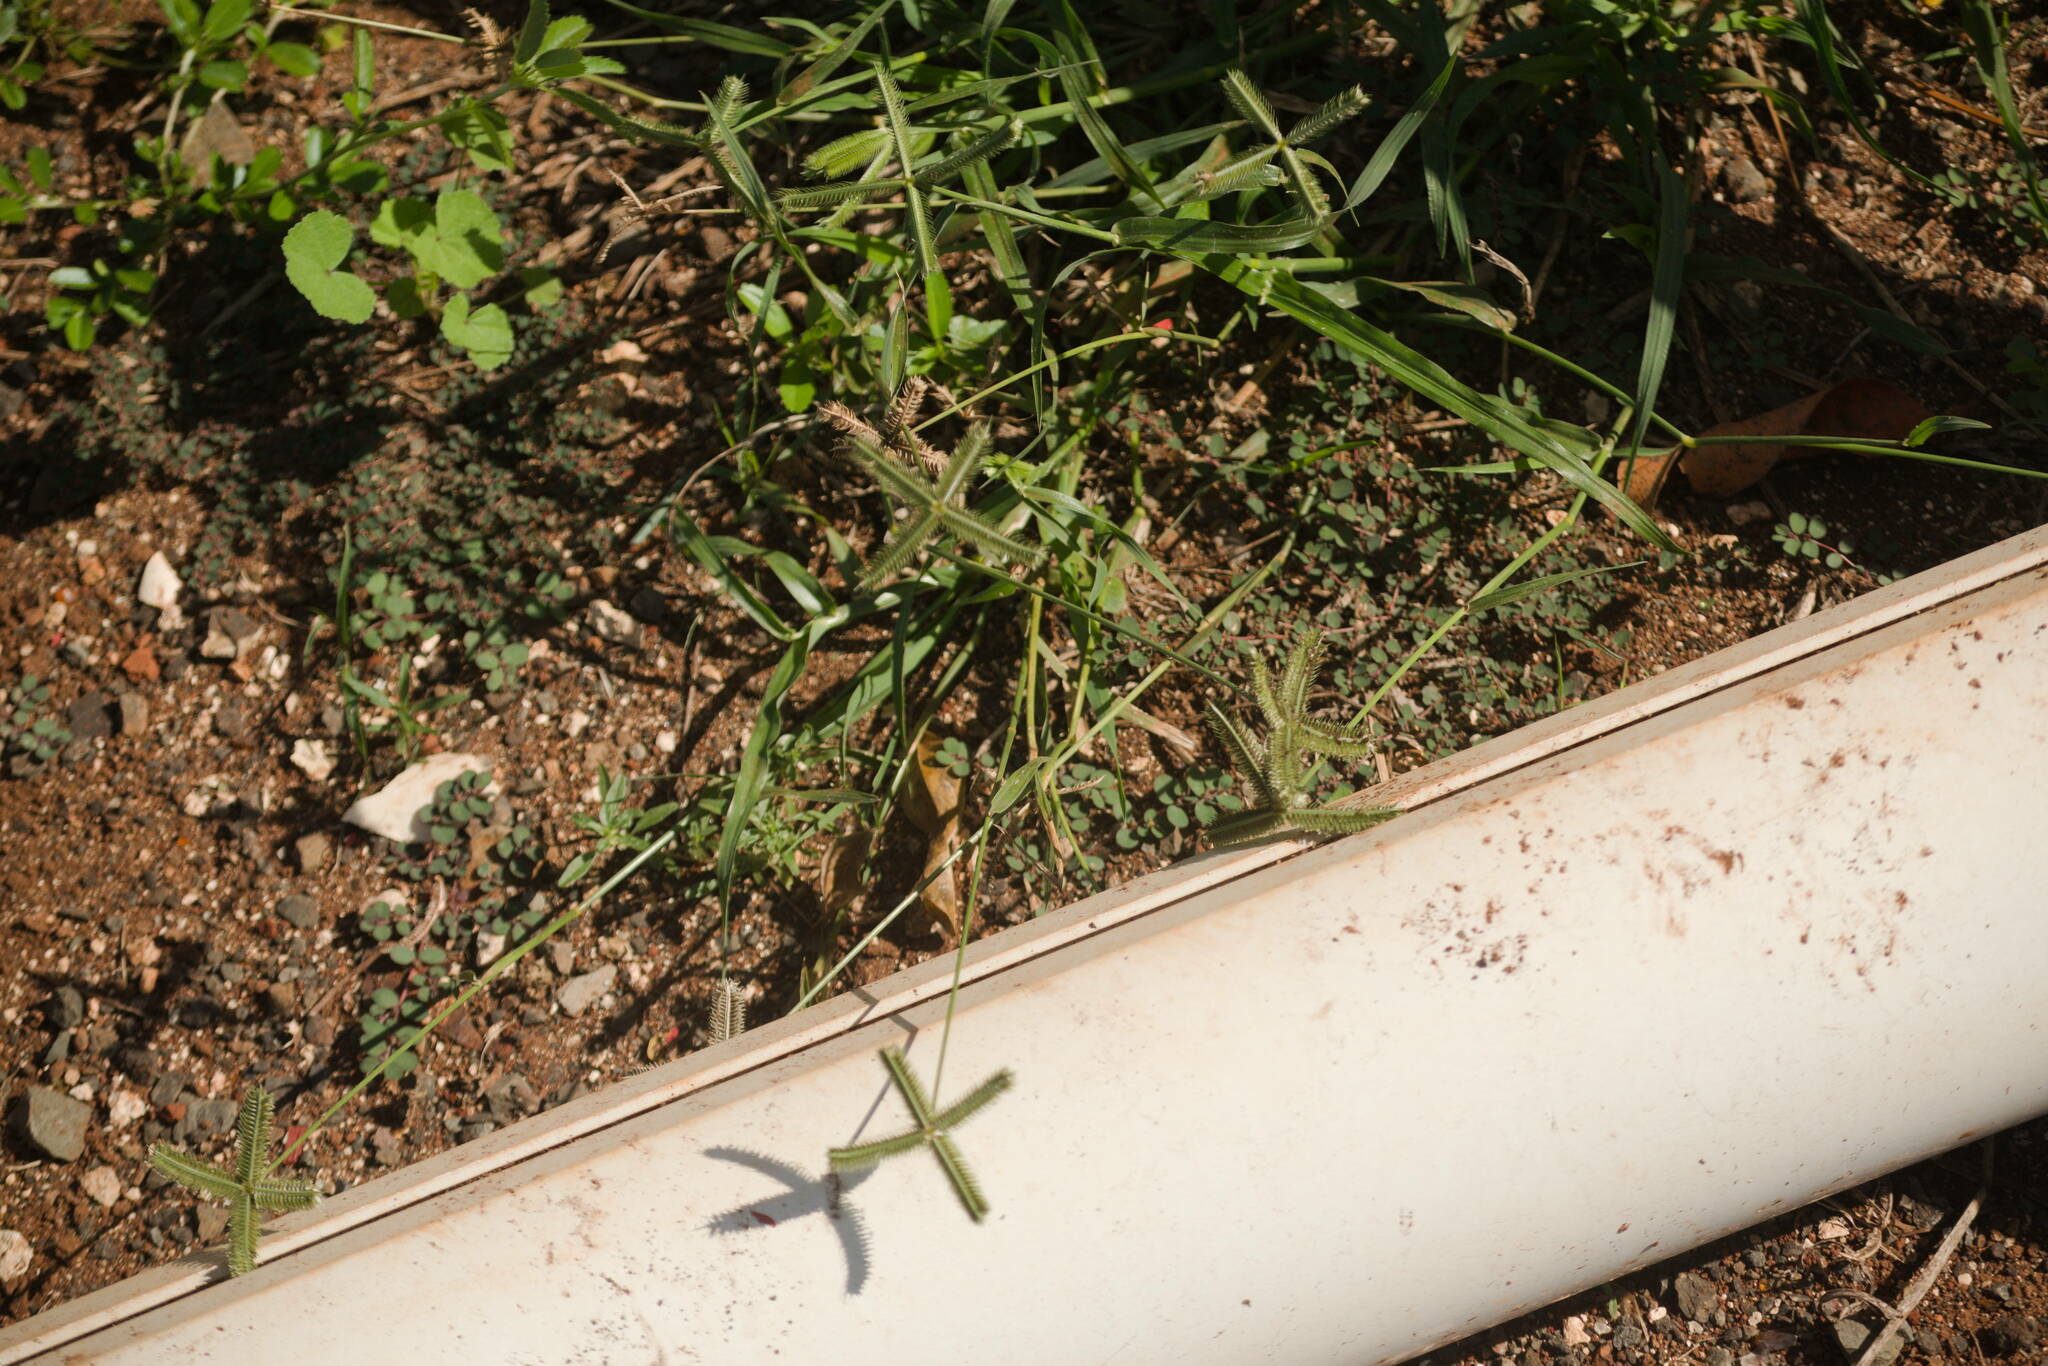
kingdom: Plantae
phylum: Tracheophyta
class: Liliopsida
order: Poales
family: Poaceae
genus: Dactyloctenium
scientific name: Dactyloctenium aegyptium
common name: Egyptian grass
